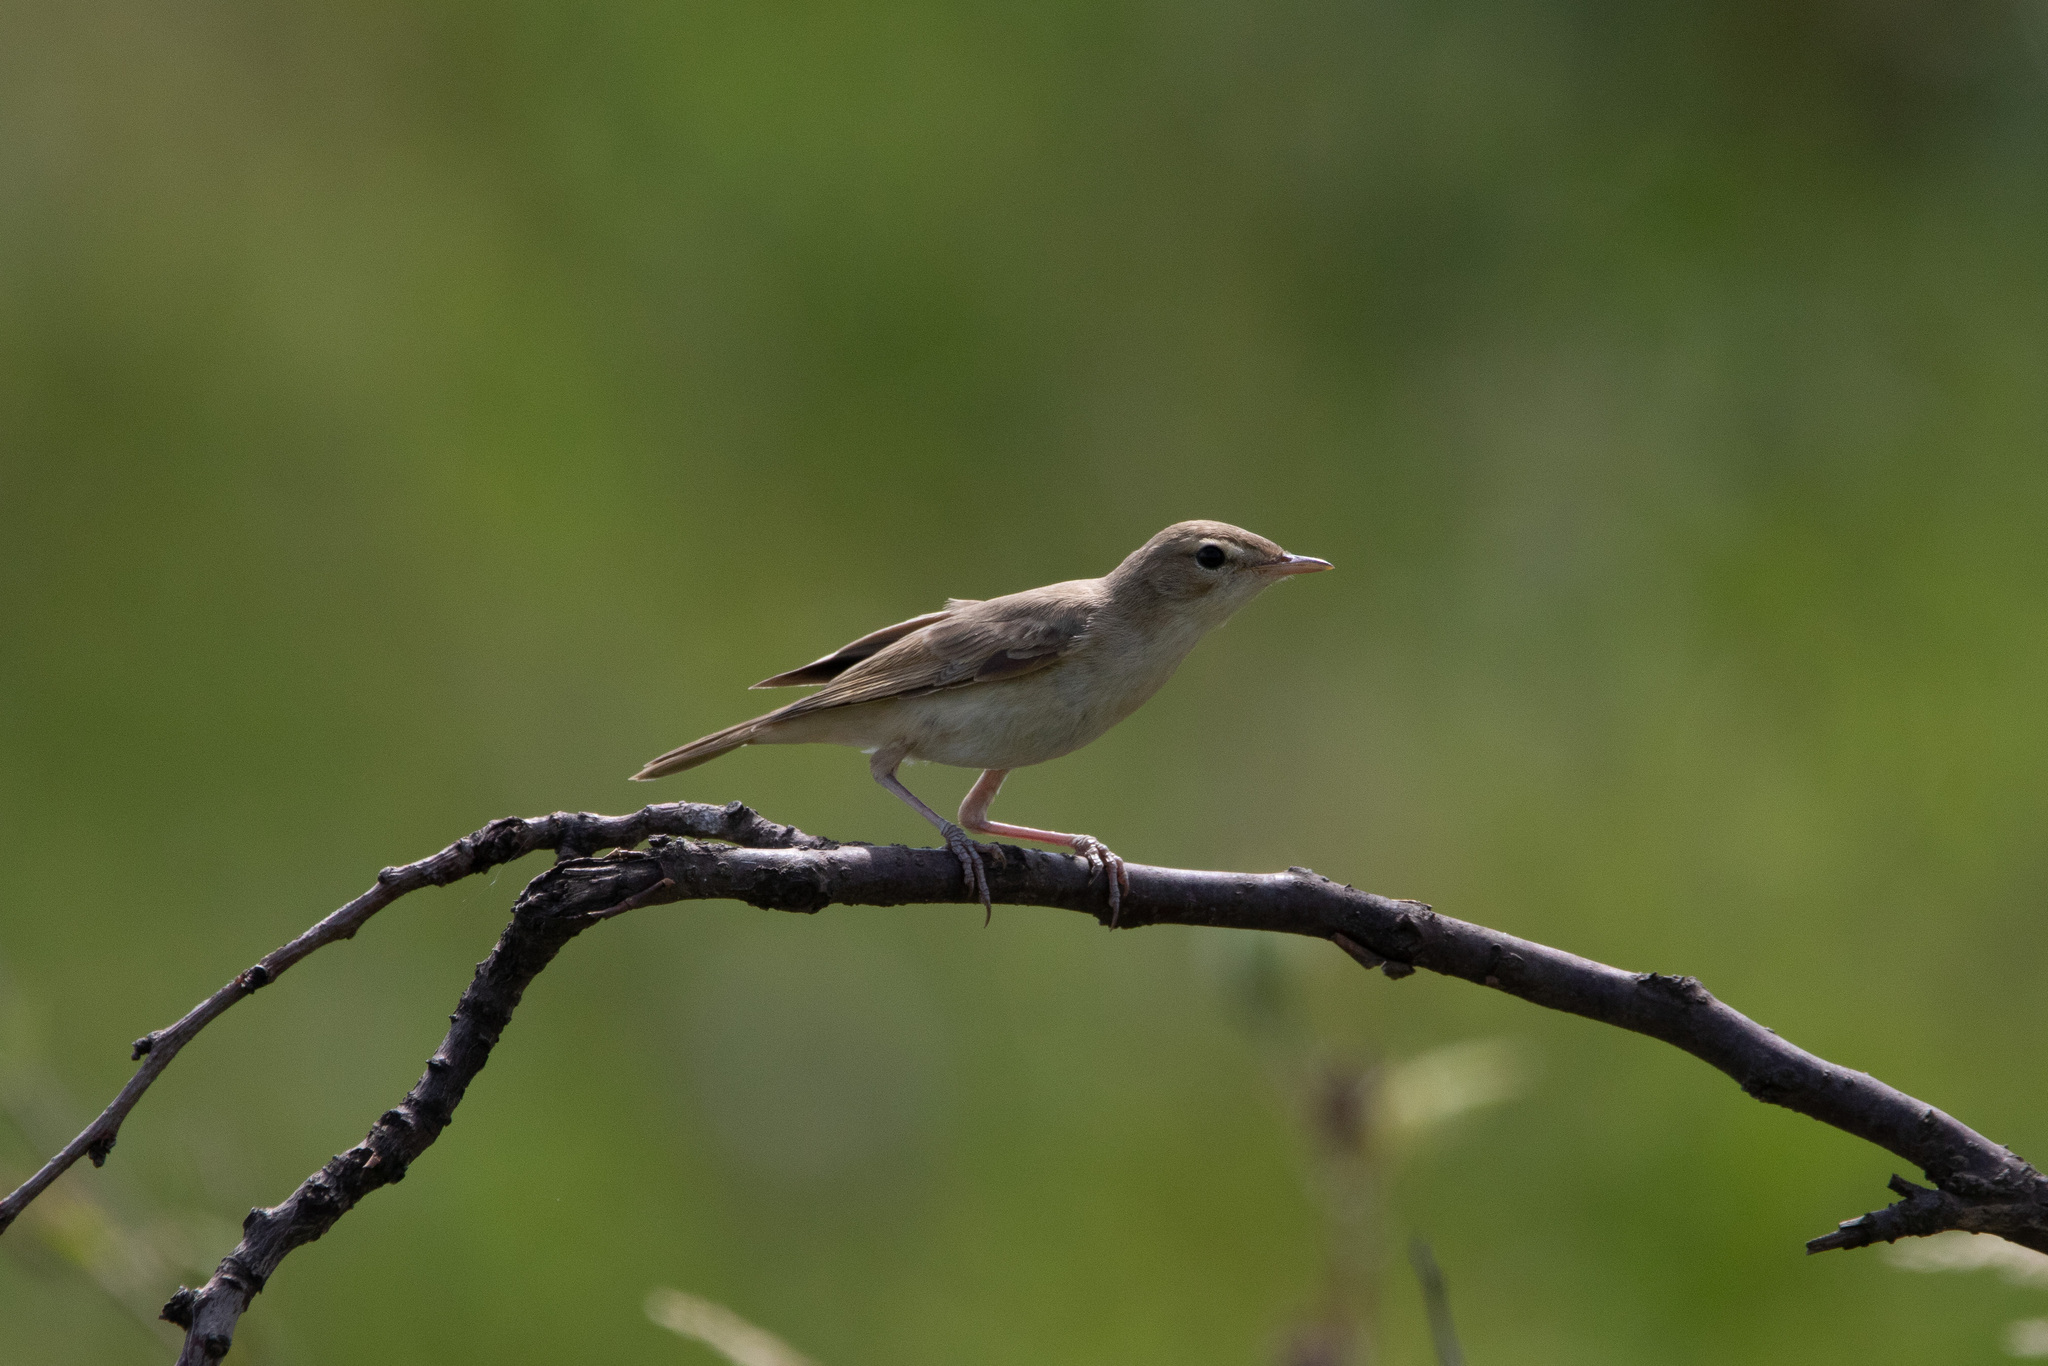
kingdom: Animalia
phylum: Chordata
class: Aves
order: Passeriformes
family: Acrocephalidae
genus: Iduna
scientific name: Iduna caligata
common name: Booted warbler
